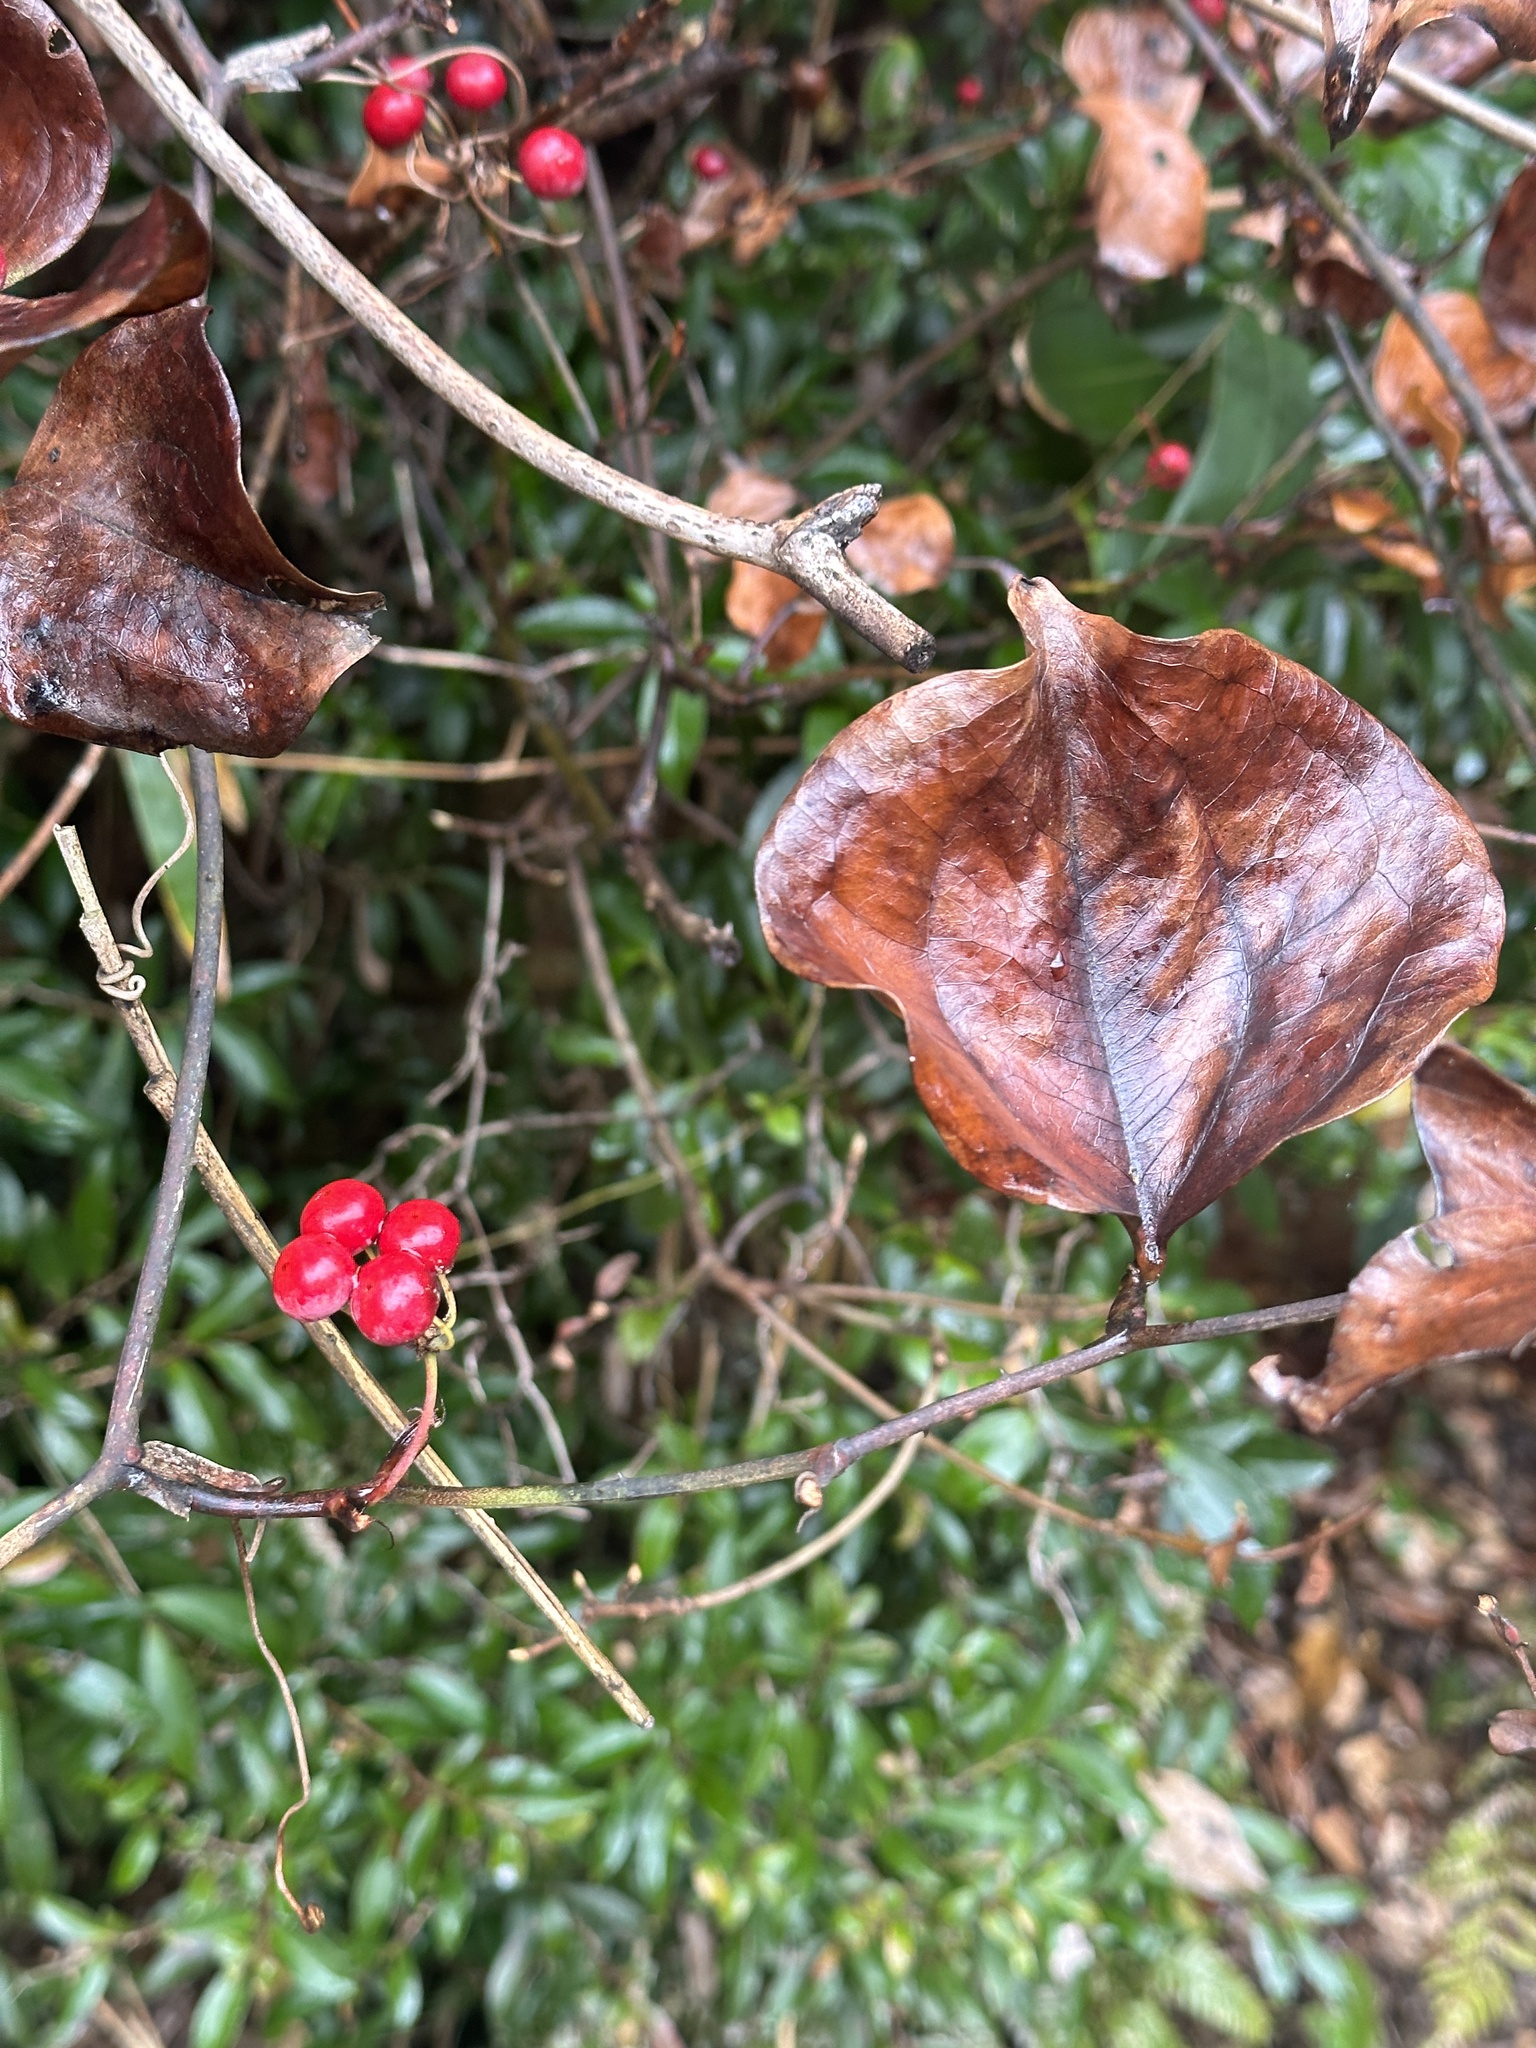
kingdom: Plantae
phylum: Tracheophyta
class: Liliopsida
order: Liliales
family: Smilacaceae
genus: Smilax
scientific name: Smilax china
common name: Chinaroot
